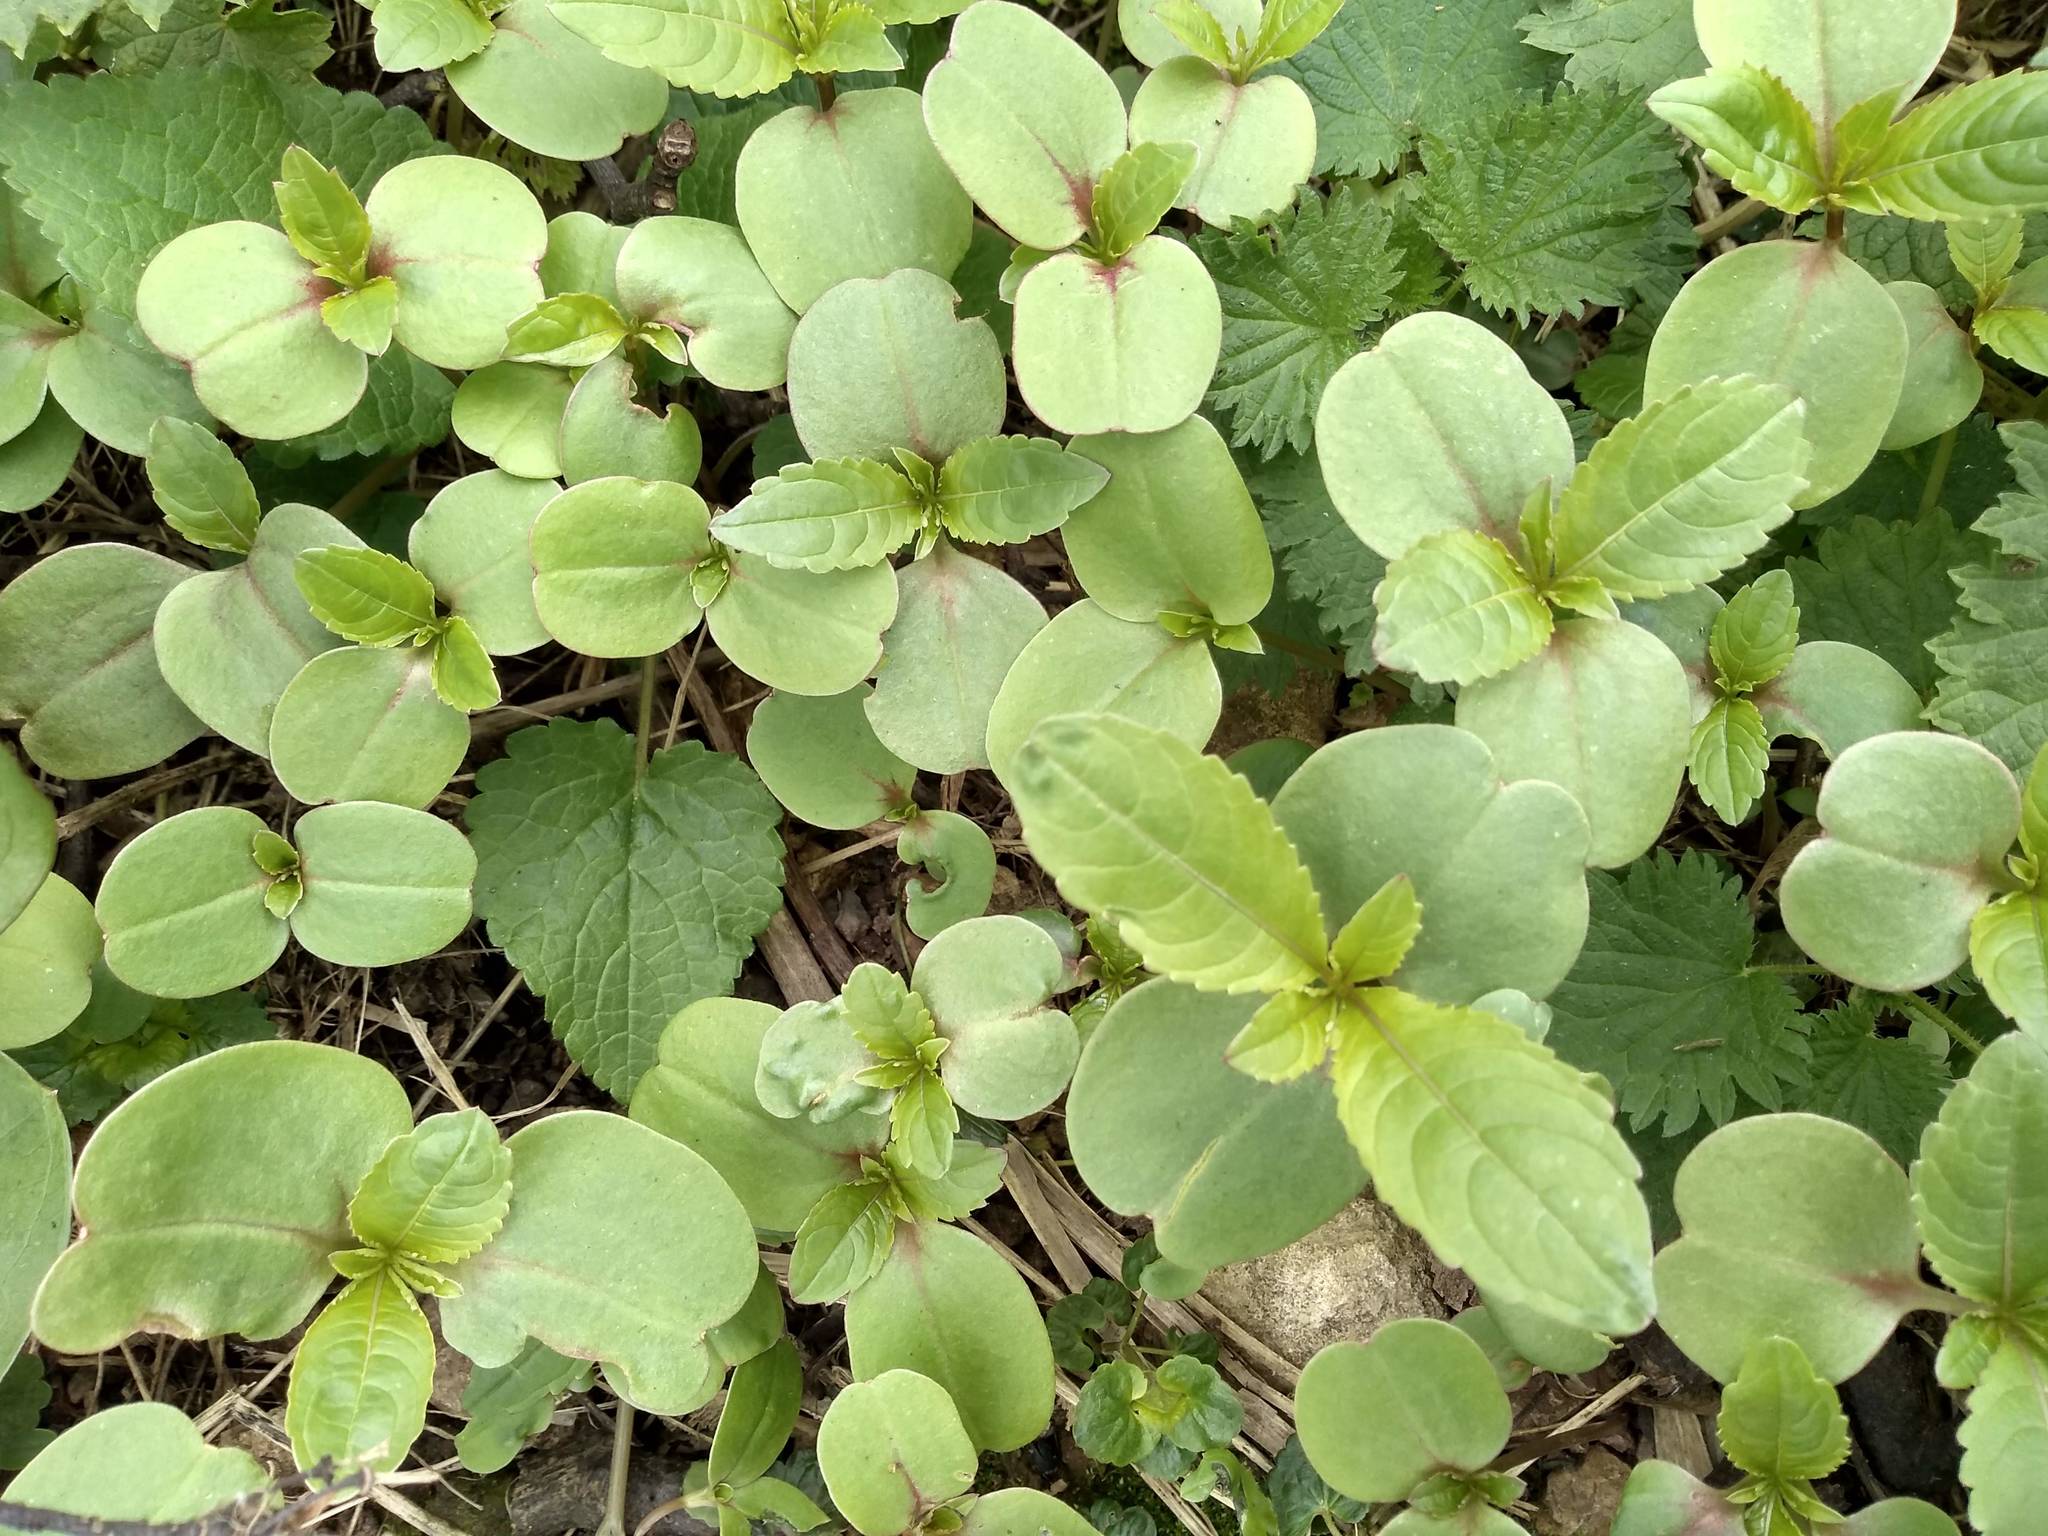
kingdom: Plantae
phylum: Tracheophyta
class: Magnoliopsida
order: Ericales
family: Balsaminaceae
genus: Impatiens
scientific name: Impatiens glandulifera
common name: Himalayan balsam
